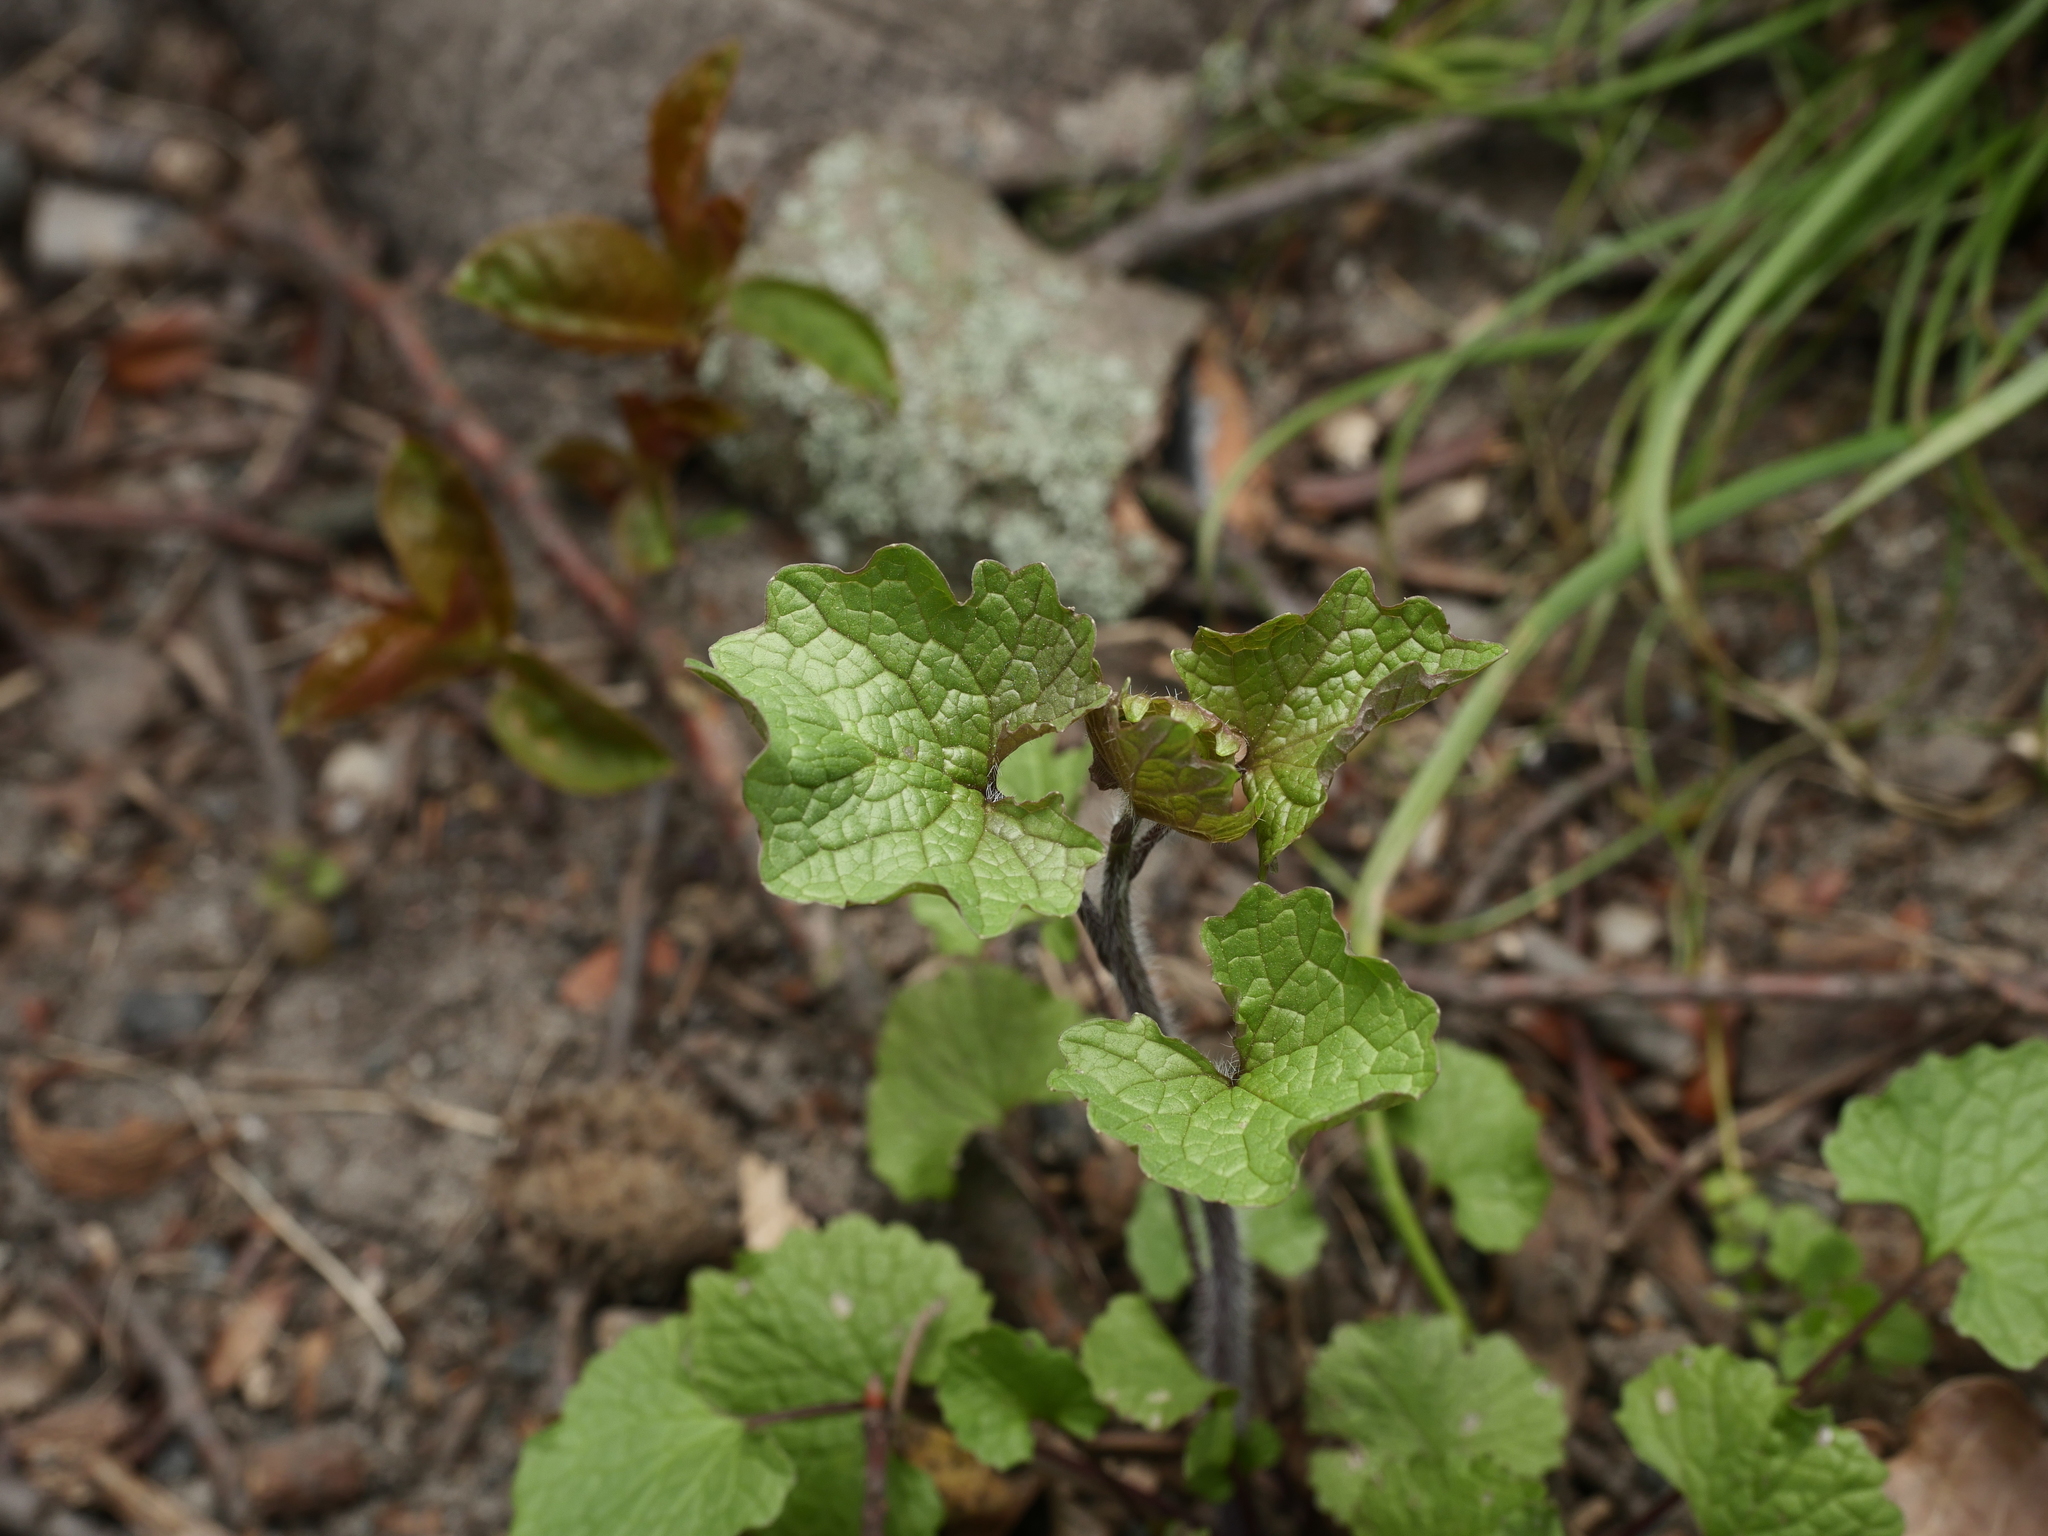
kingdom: Plantae
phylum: Tracheophyta
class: Magnoliopsida
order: Brassicales
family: Brassicaceae
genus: Alliaria
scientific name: Alliaria petiolata
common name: Garlic mustard
